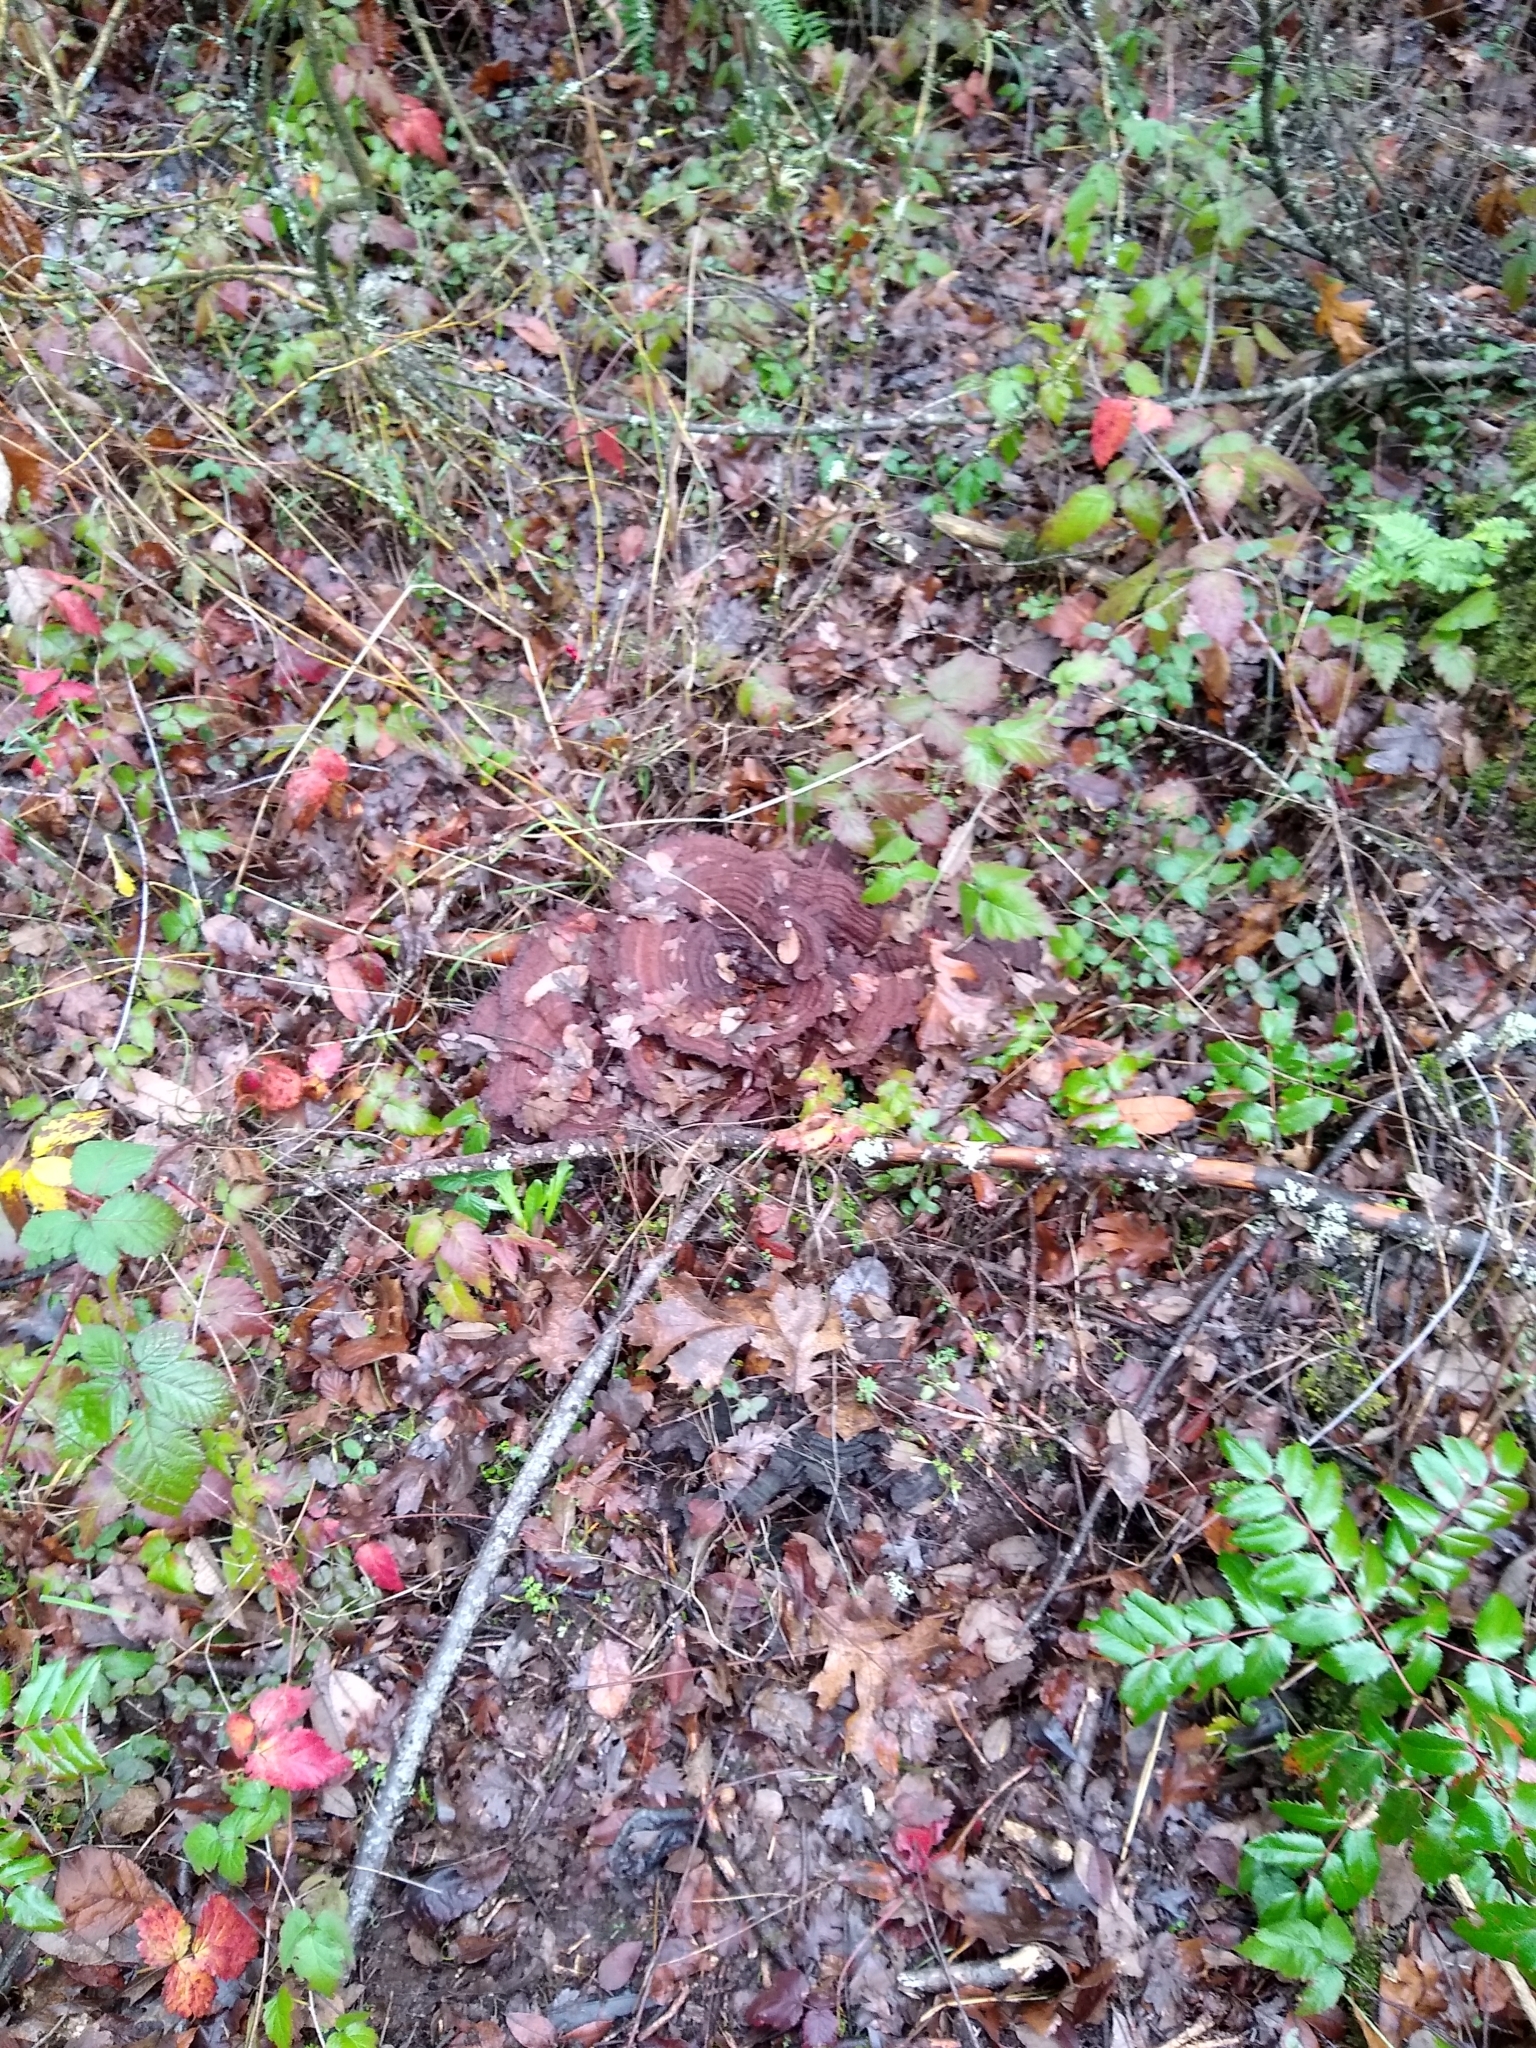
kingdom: Fungi
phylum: Basidiomycota
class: Agaricomycetes
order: Polyporales
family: Laetiporaceae
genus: Phaeolus
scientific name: Phaeolus schweinitzii
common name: Dyer's mazegill
